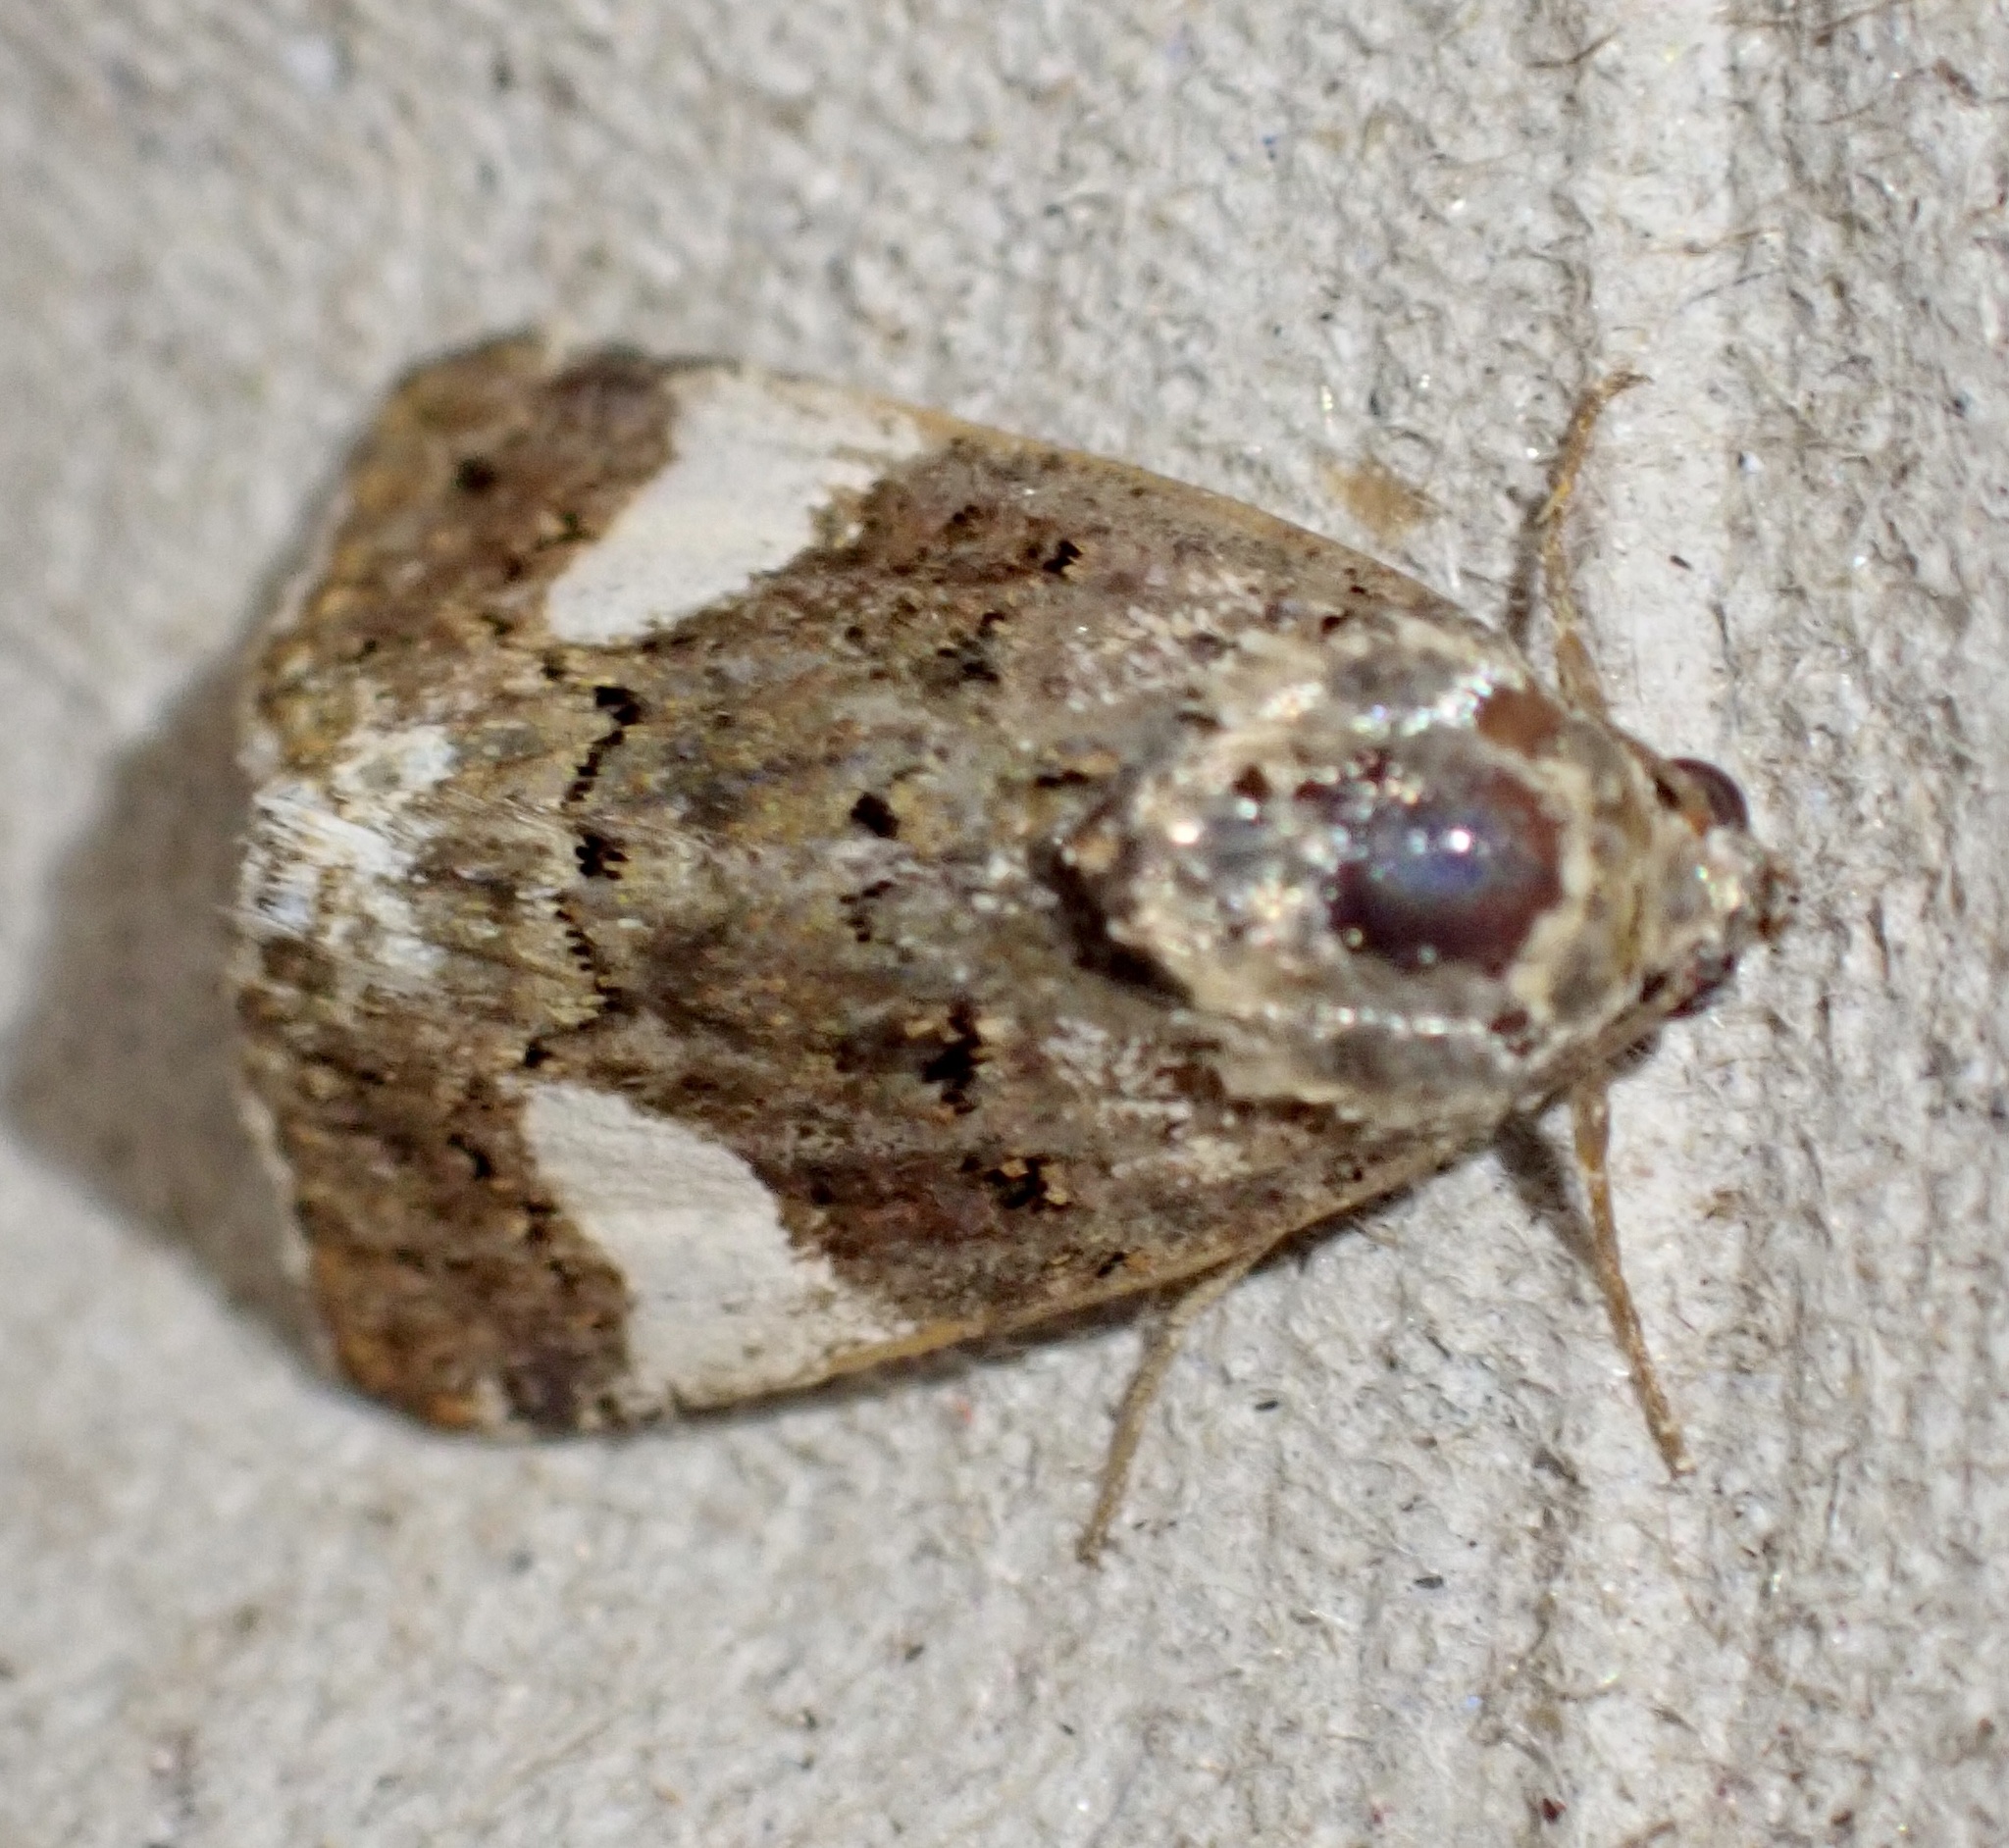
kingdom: Animalia
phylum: Arthropoda
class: Insecta
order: Lepidoptera
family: Erebidae
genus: Tyta
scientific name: Tyta luctuosa
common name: Four-spotted
